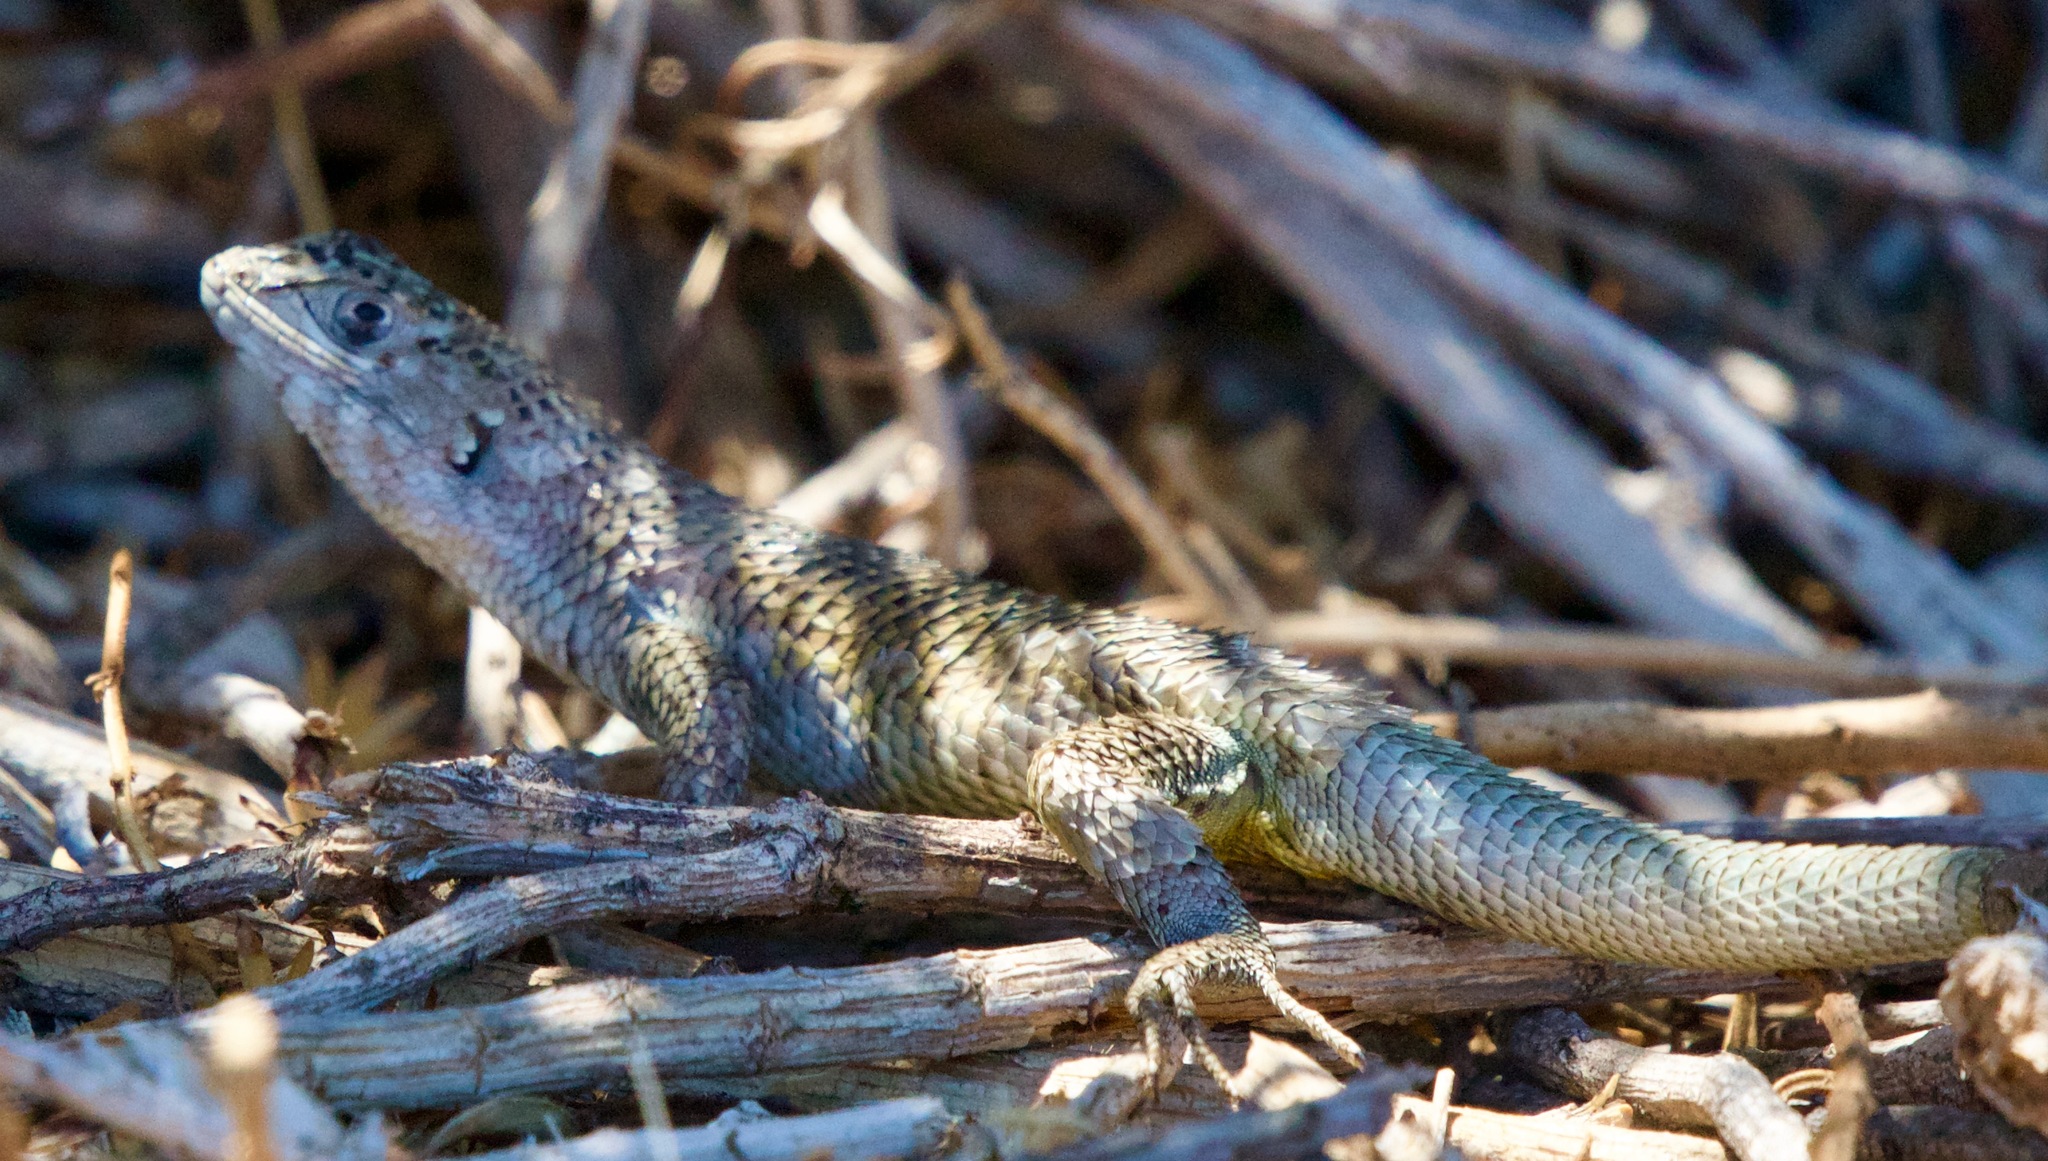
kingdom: Animalia
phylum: Chordata
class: Squamata
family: Liolaemidae
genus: Liolaemus
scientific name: Liolaemus nitidus
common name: Shining tree iguana
